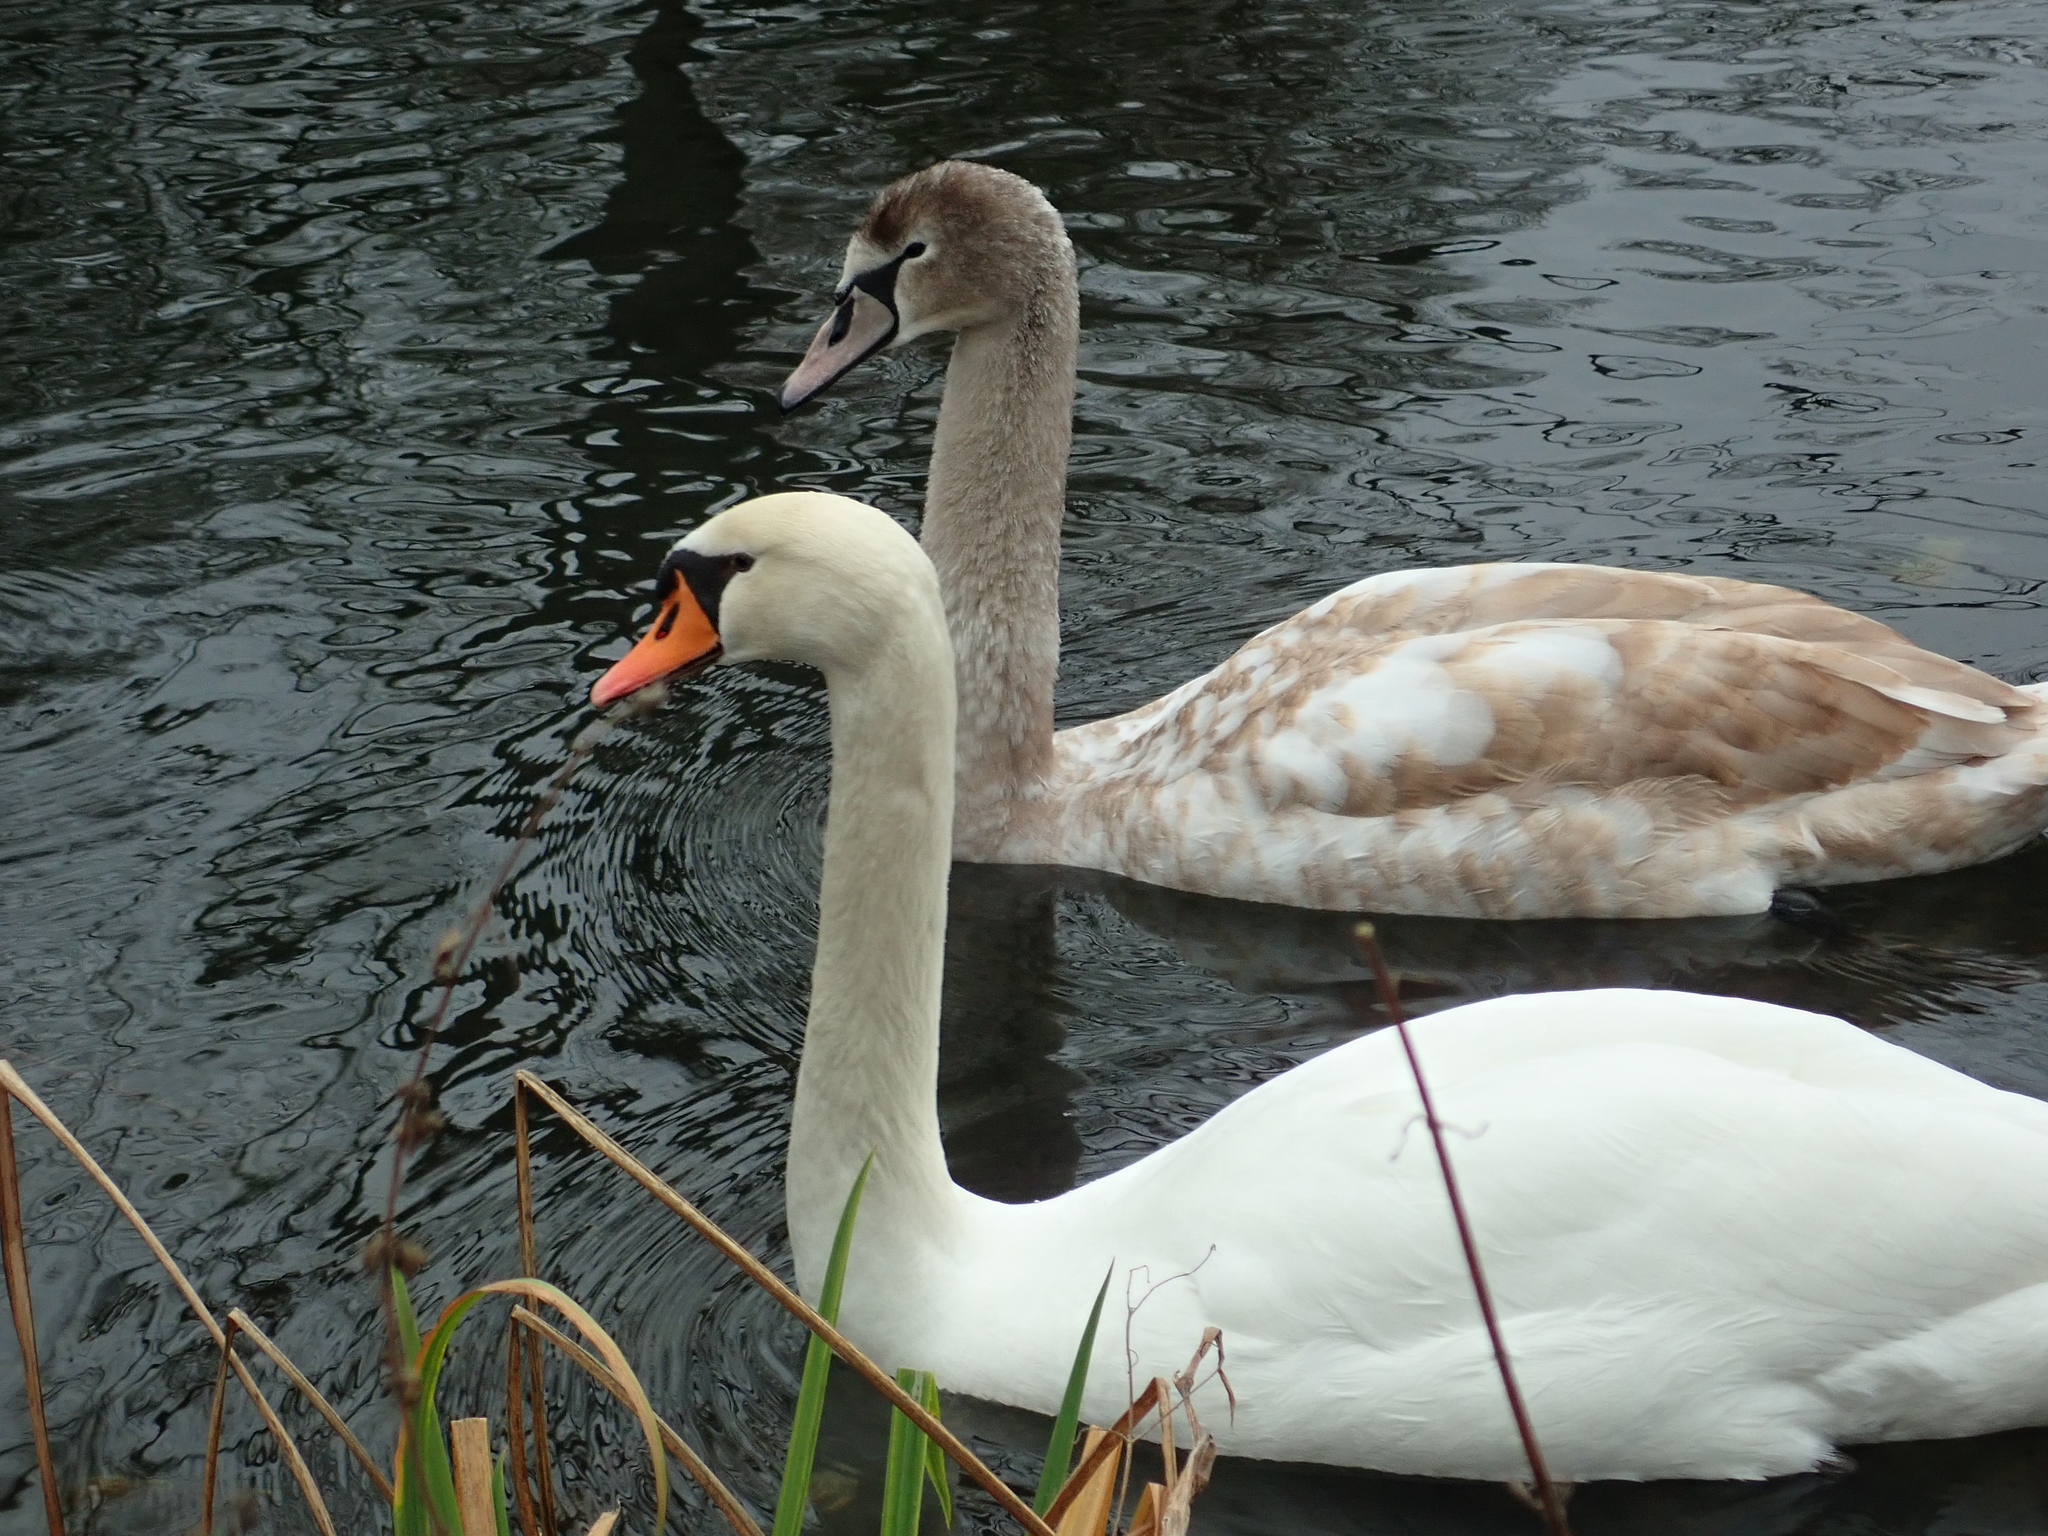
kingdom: Animalia
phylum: Chordata
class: Aves
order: Anseriformes
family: Anatidae
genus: Cygnus
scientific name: Cygnus olor
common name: Mute swan
